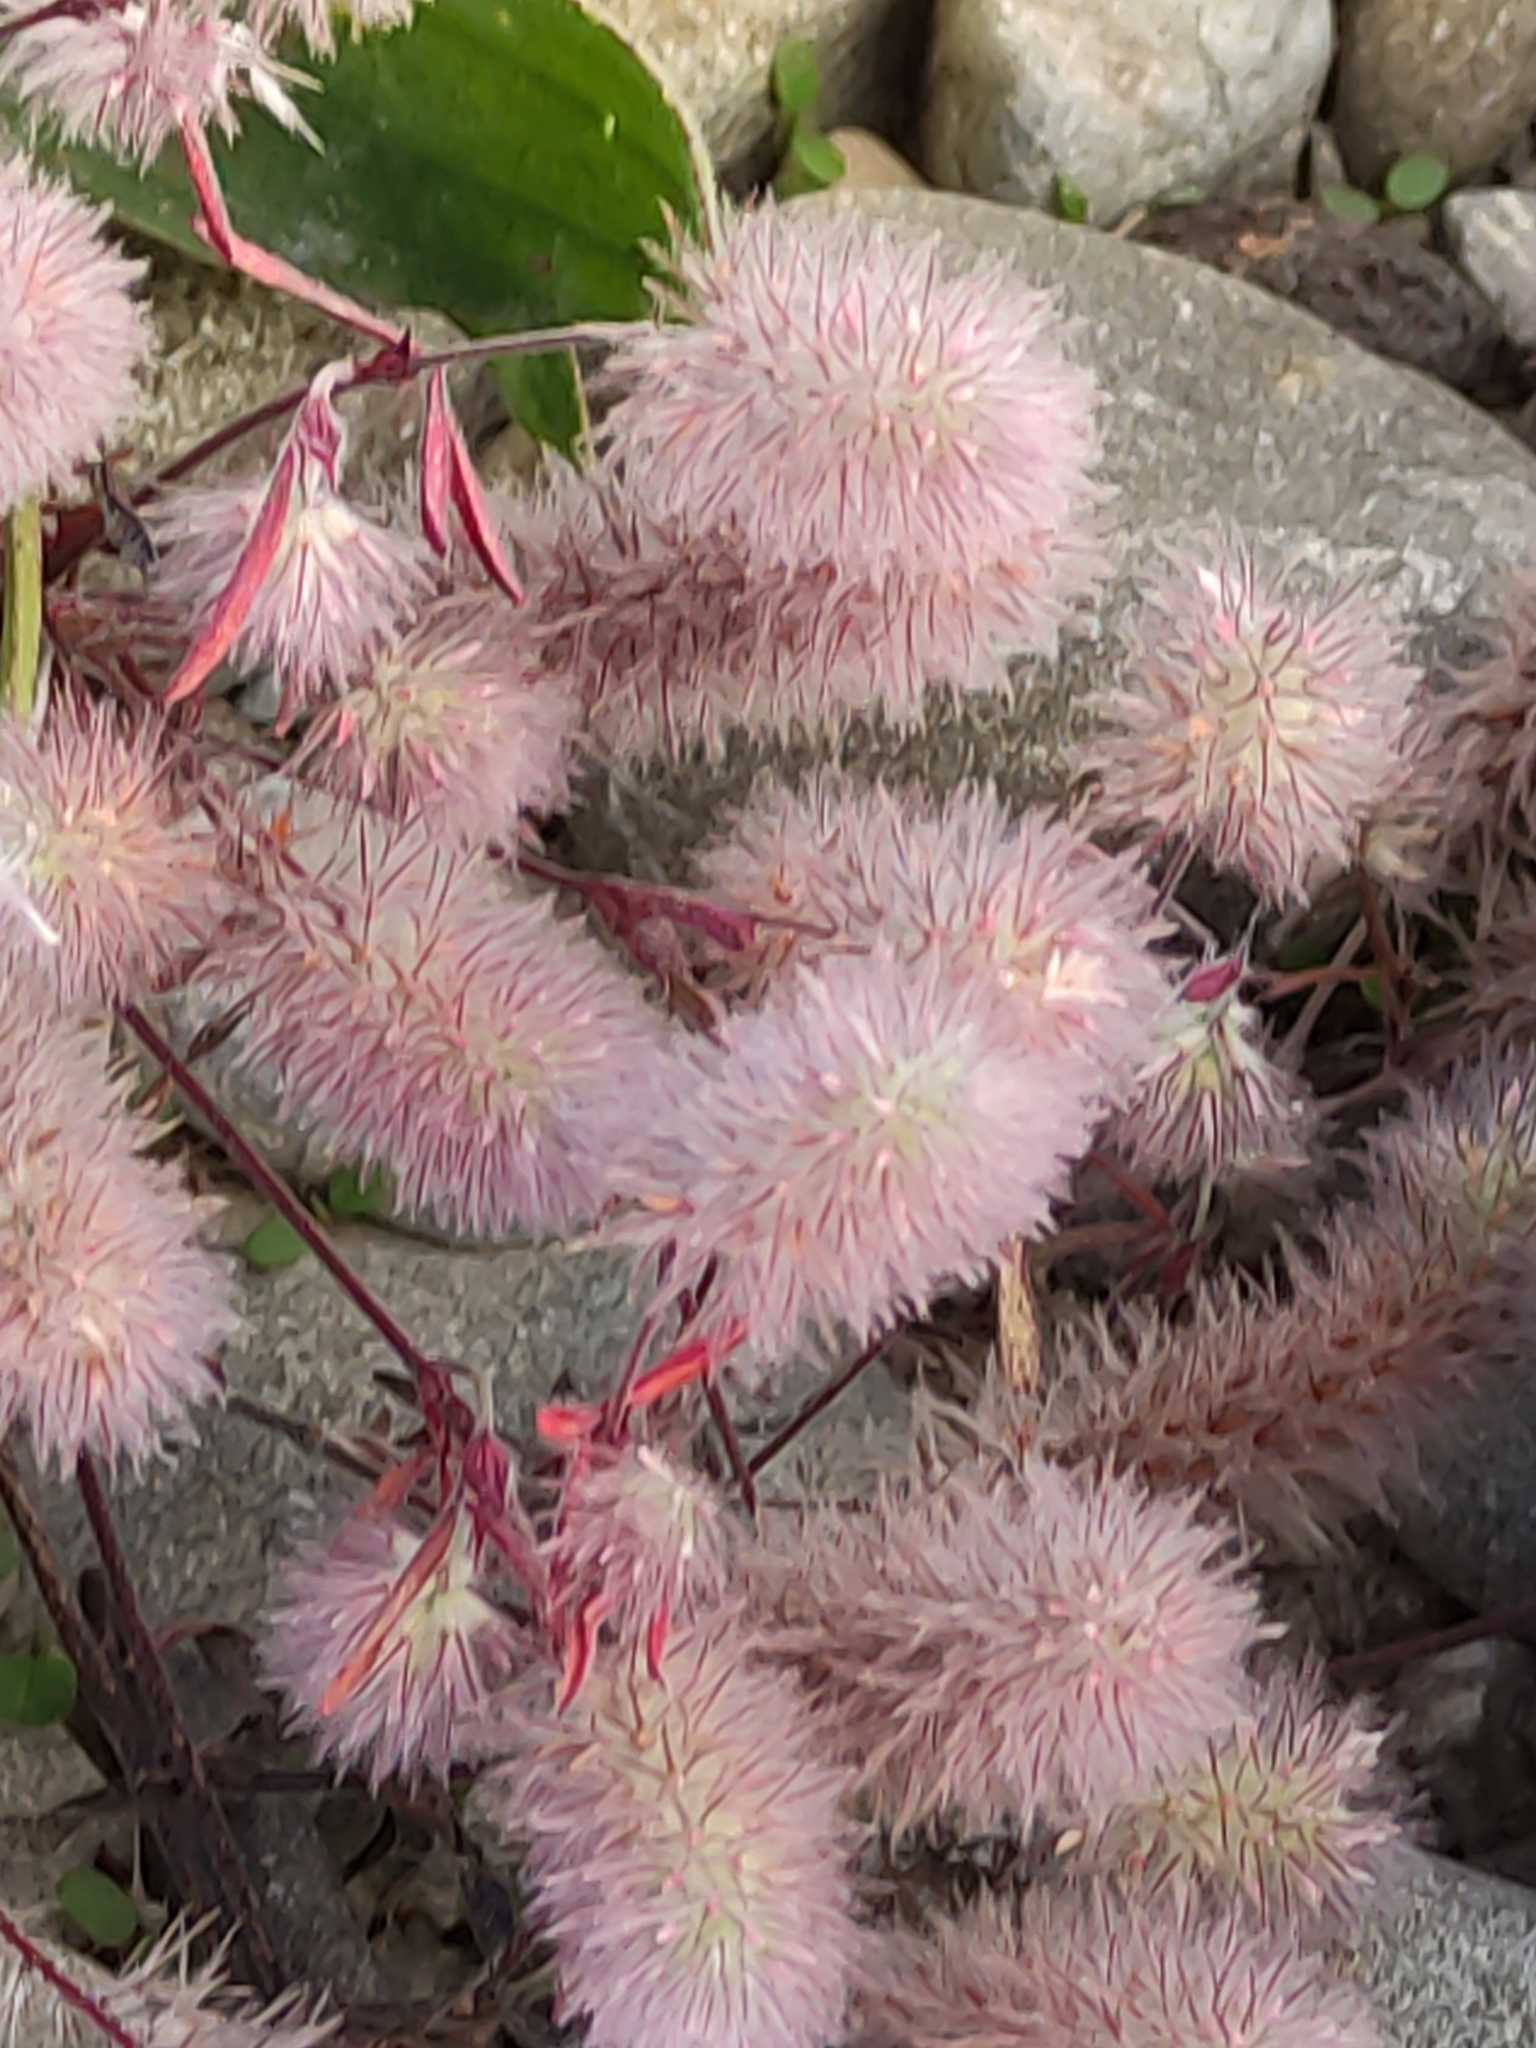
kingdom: Plantae
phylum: Tracheophyta
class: Magnoliopsida
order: Fabales
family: Fabaceae
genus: Trifolium
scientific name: Trifolium arvense
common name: Hare's-foot clover
